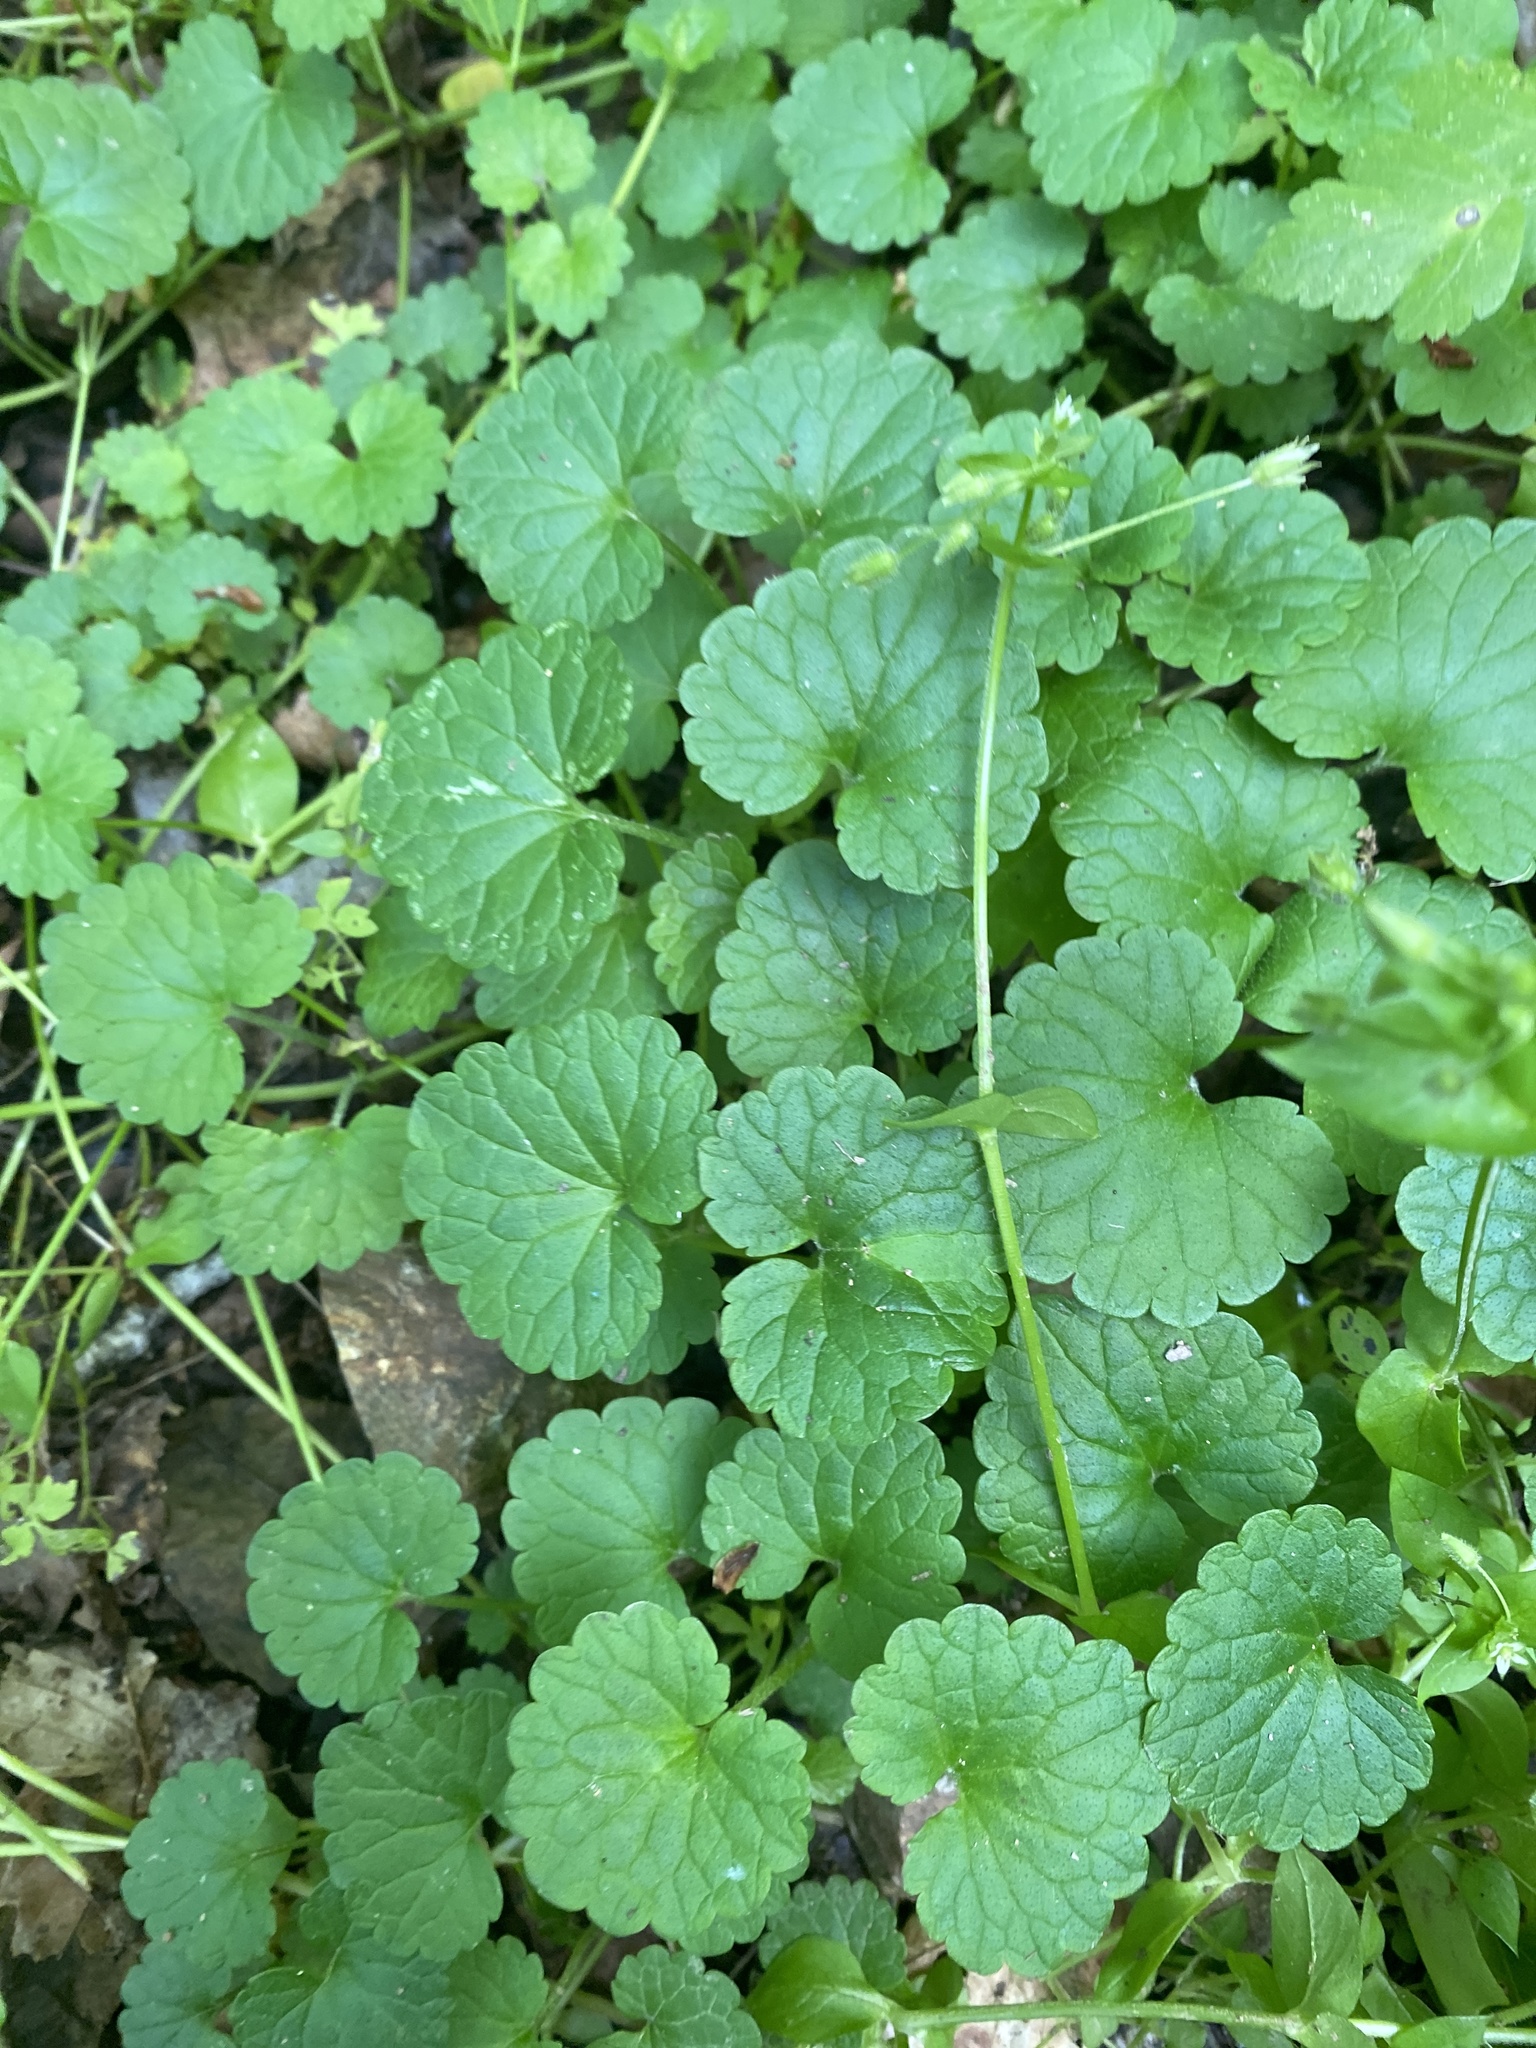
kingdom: Plantae
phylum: Tracheophyta
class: Magnoliopsida
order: Lamiales
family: Lamiaceae
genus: Glechoma
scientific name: Glechoma hederacea
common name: Ground ivy
